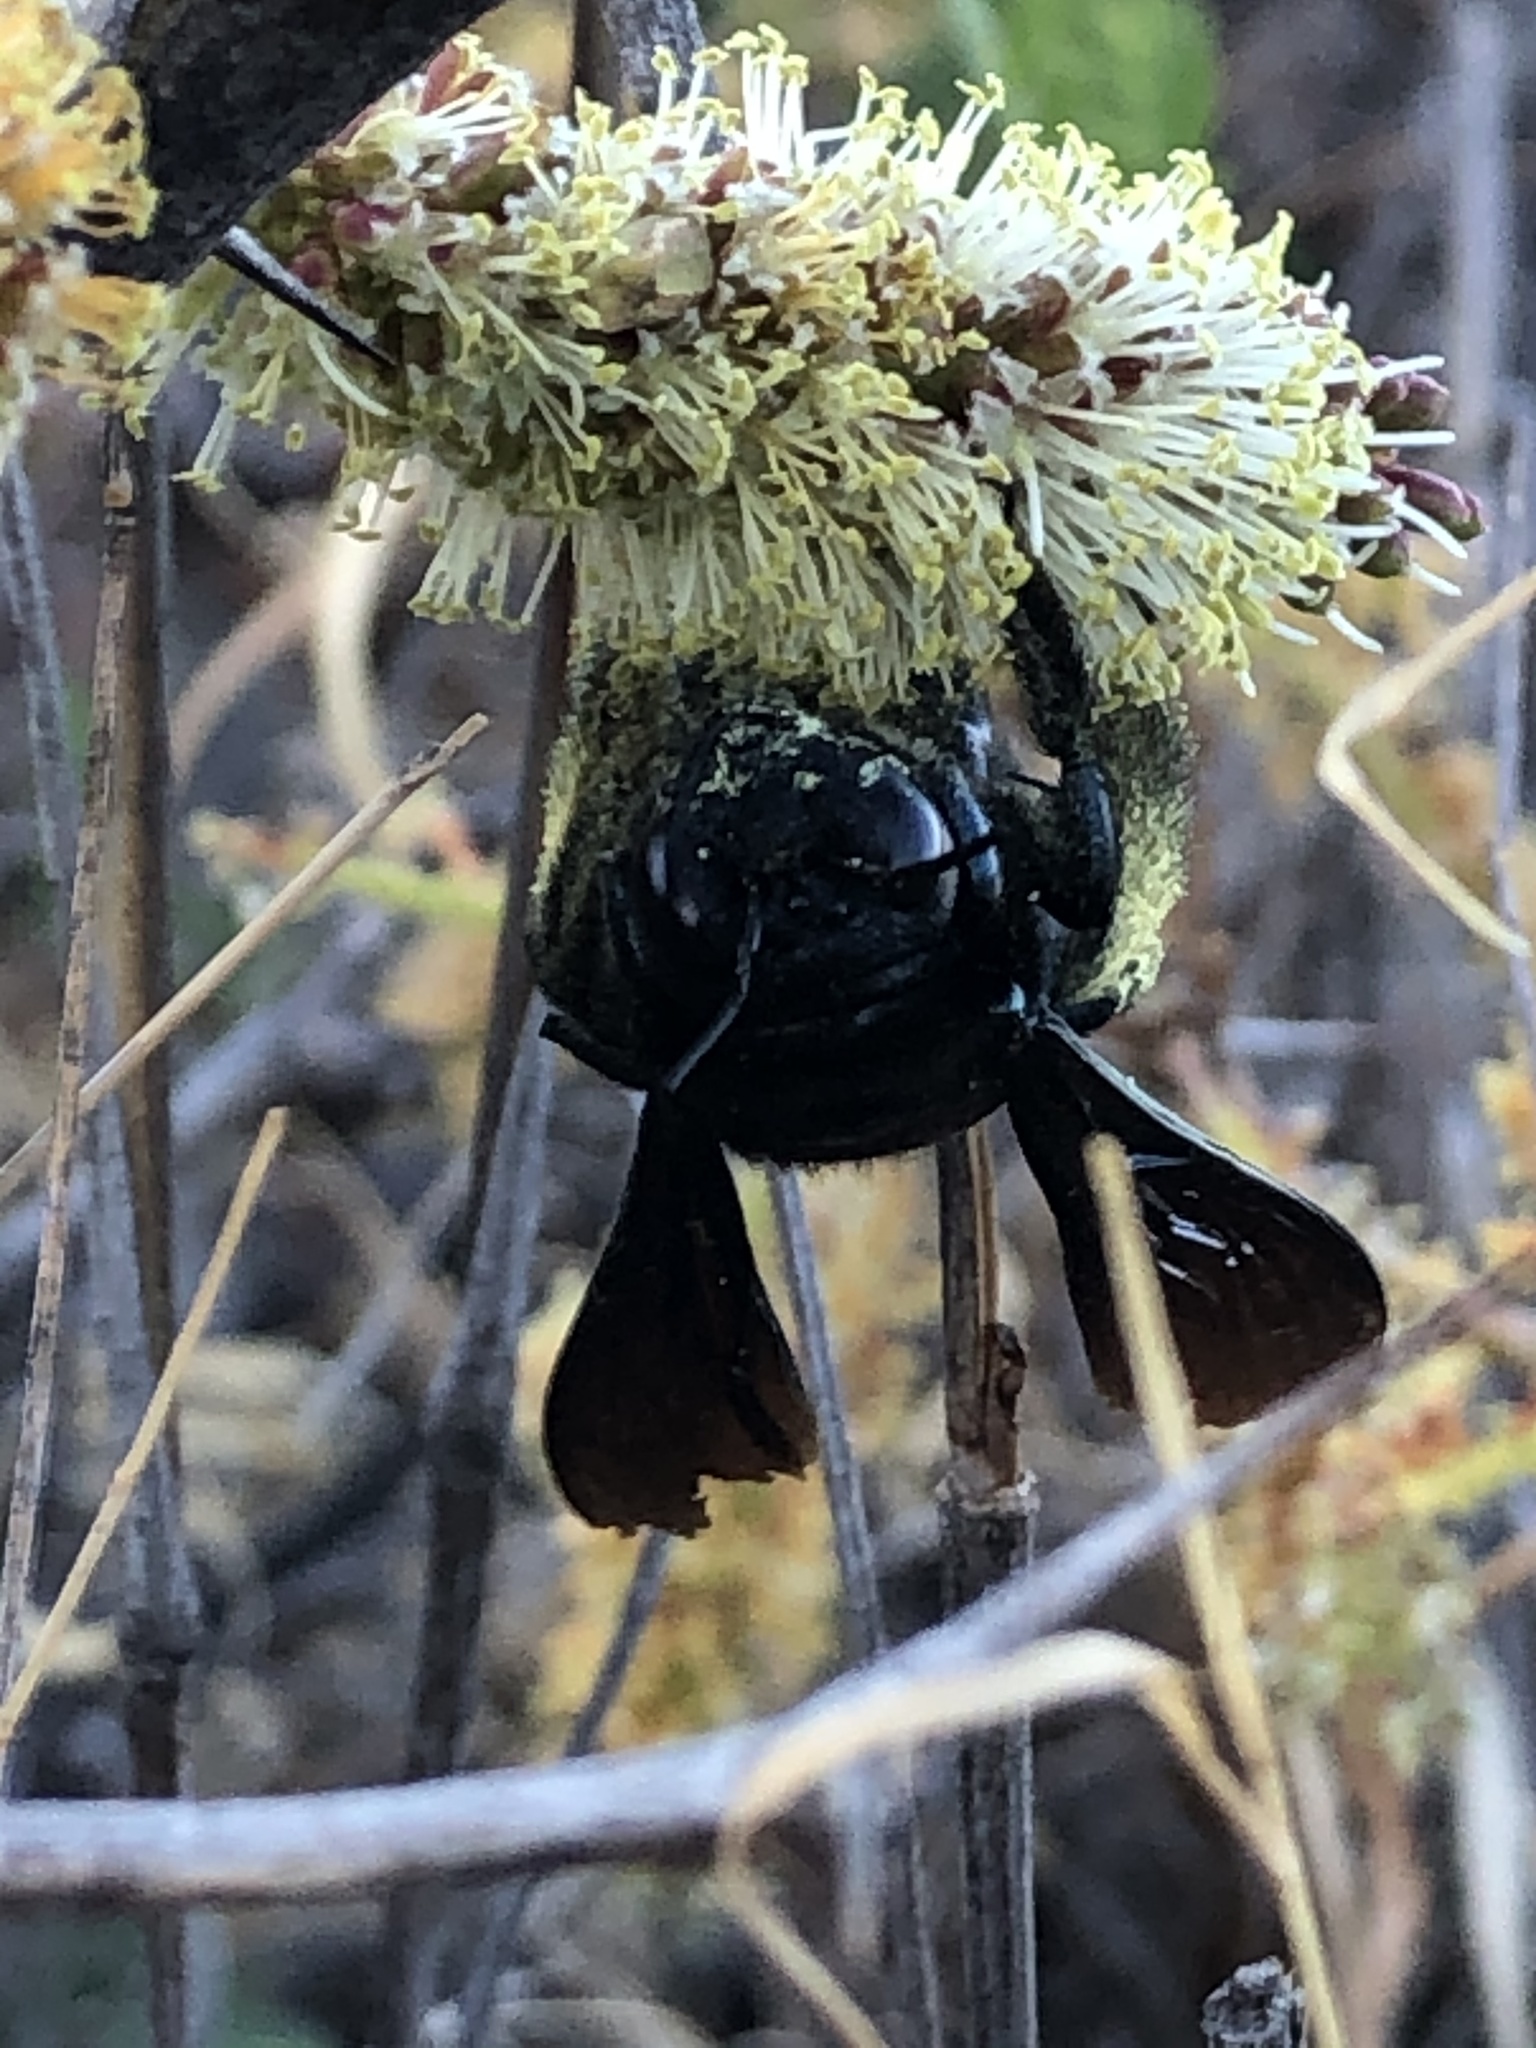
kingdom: Animalia
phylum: Arthropoda
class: Insecta
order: Hymenoptera
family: Apidae
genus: Xylocopa
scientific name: Xylocopa californica
